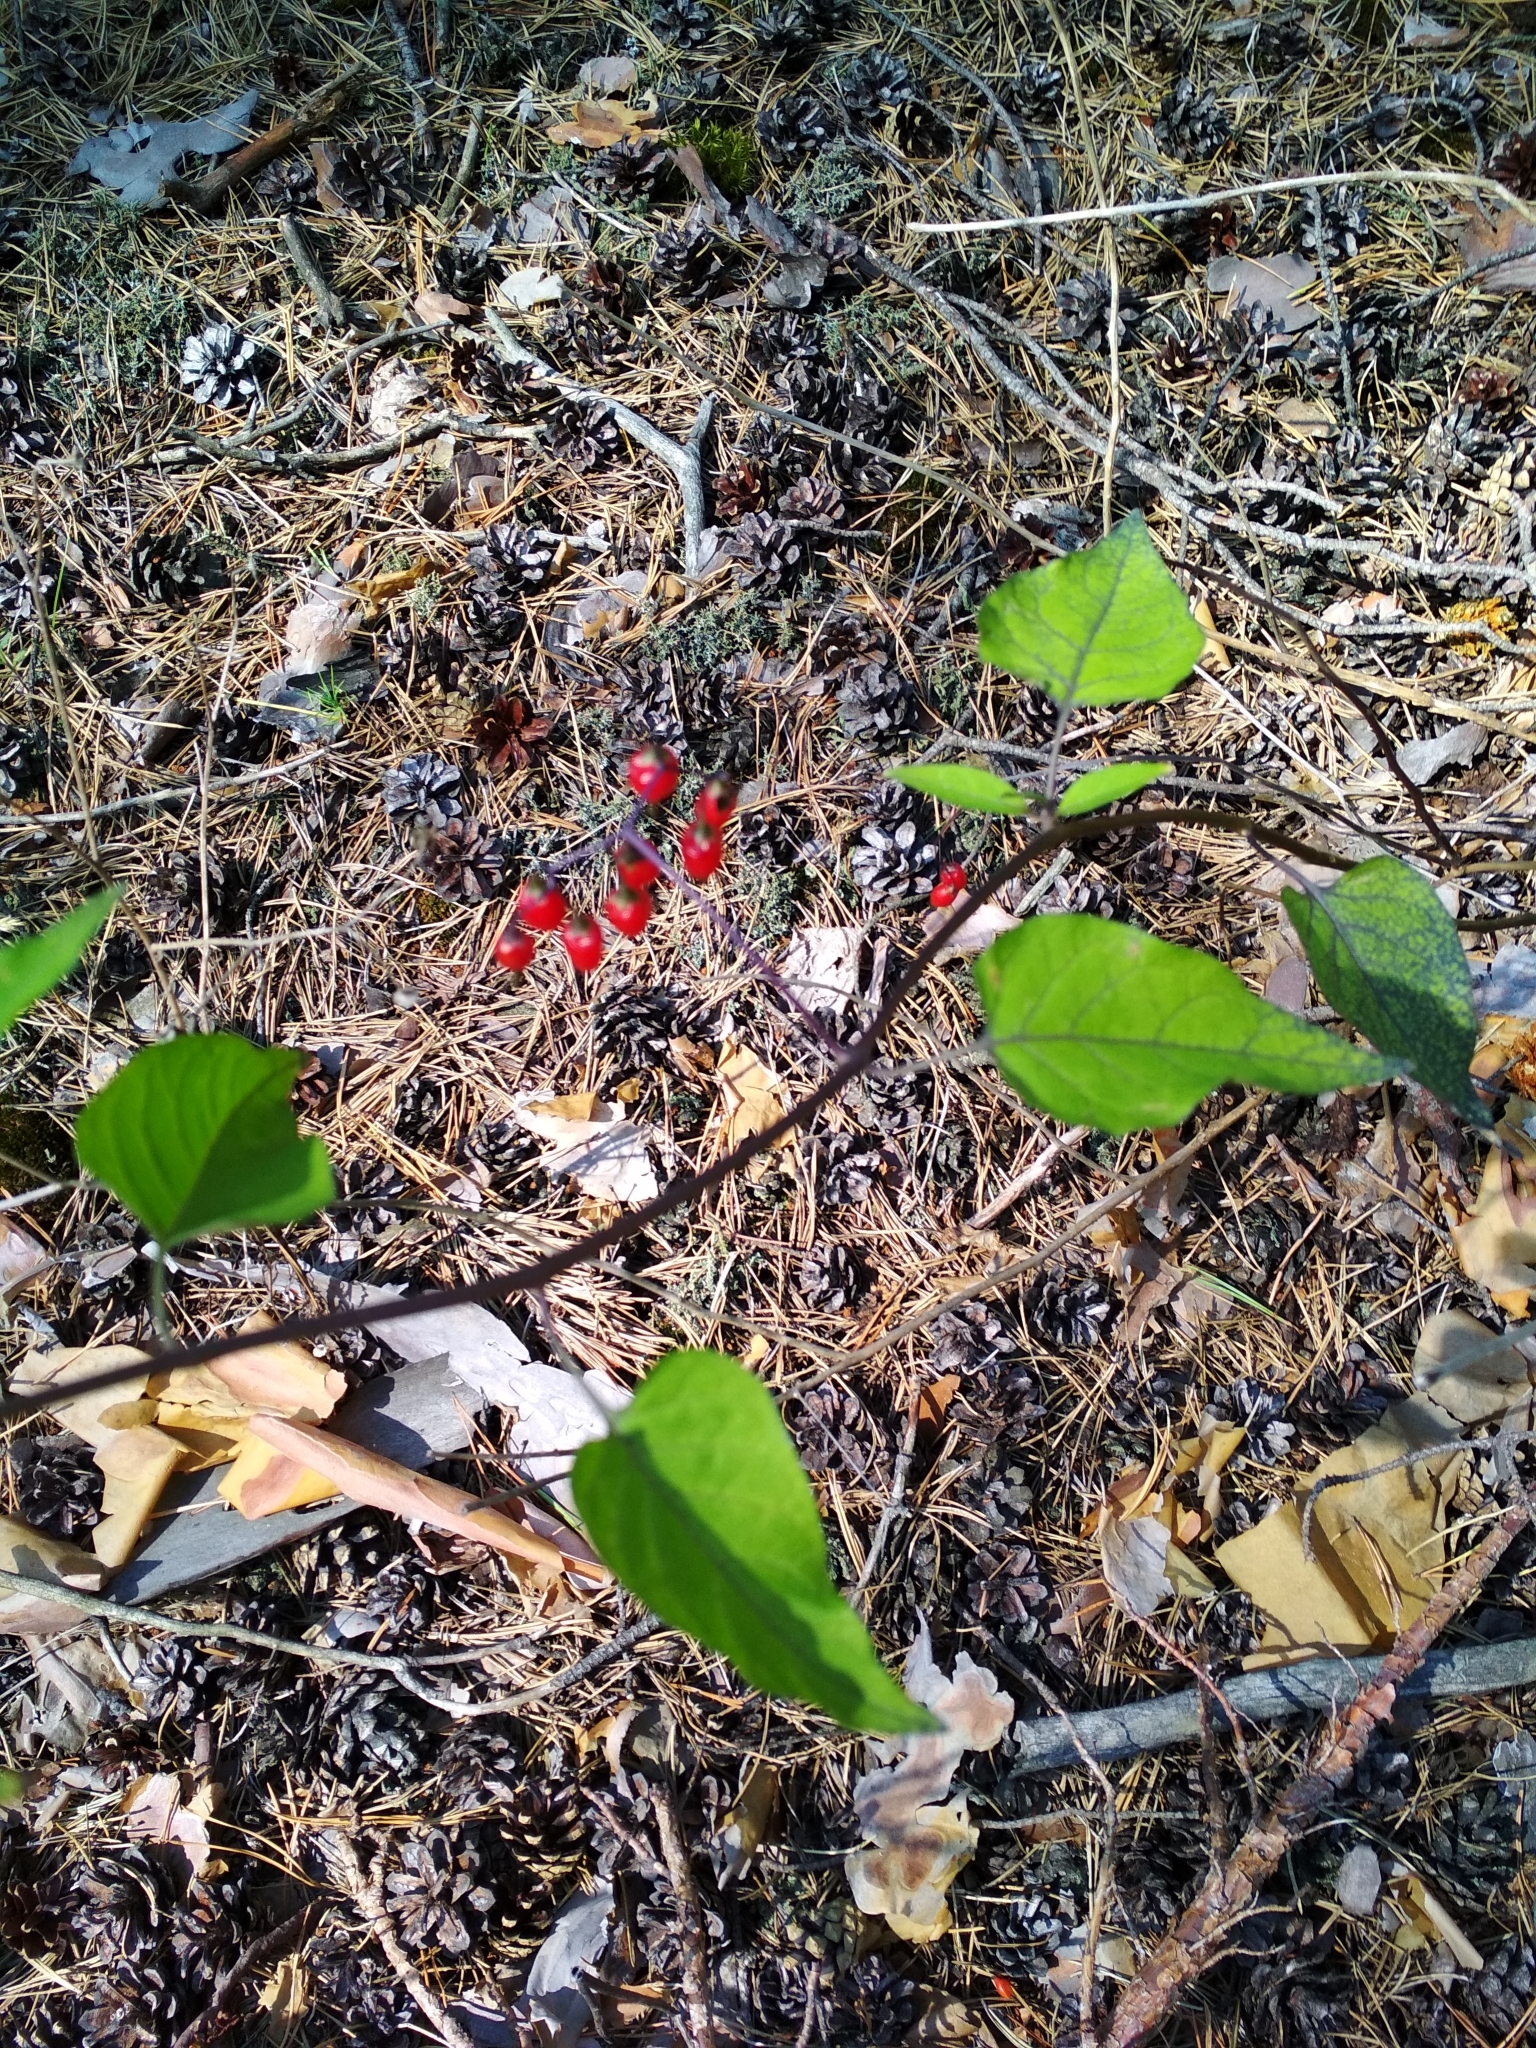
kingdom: Plantae
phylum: Tracheophyta
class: Magnoliopsida
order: Solanales
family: Solanaceae
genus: Solanum
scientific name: Solanum dulcamara
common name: Climbing nightshade
